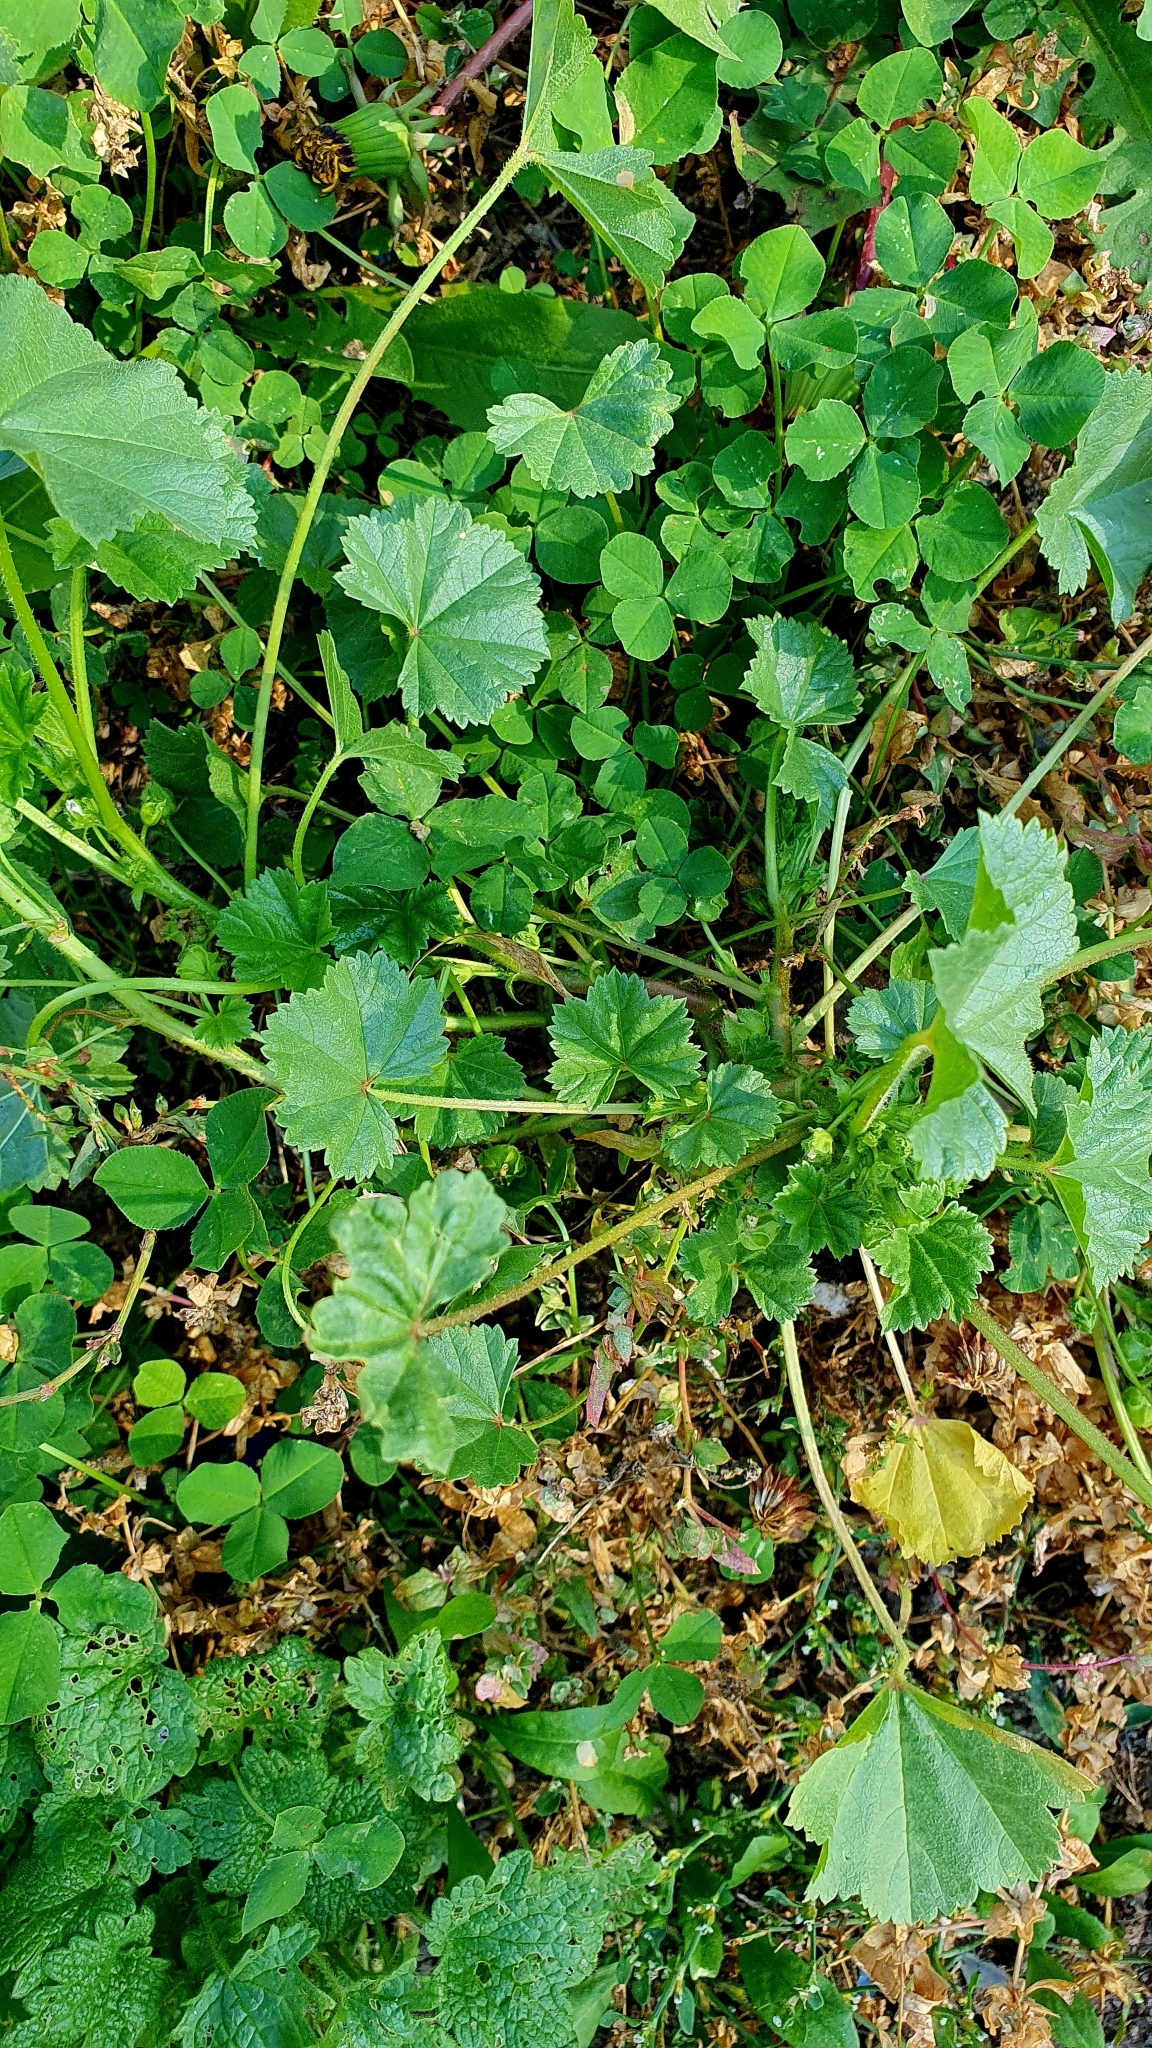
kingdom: Plantae
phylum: Tracheophyta
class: Magnoliopsida
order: Malvales
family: Malvaceae
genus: Malva
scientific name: Malva pusilla
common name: Small mallow
